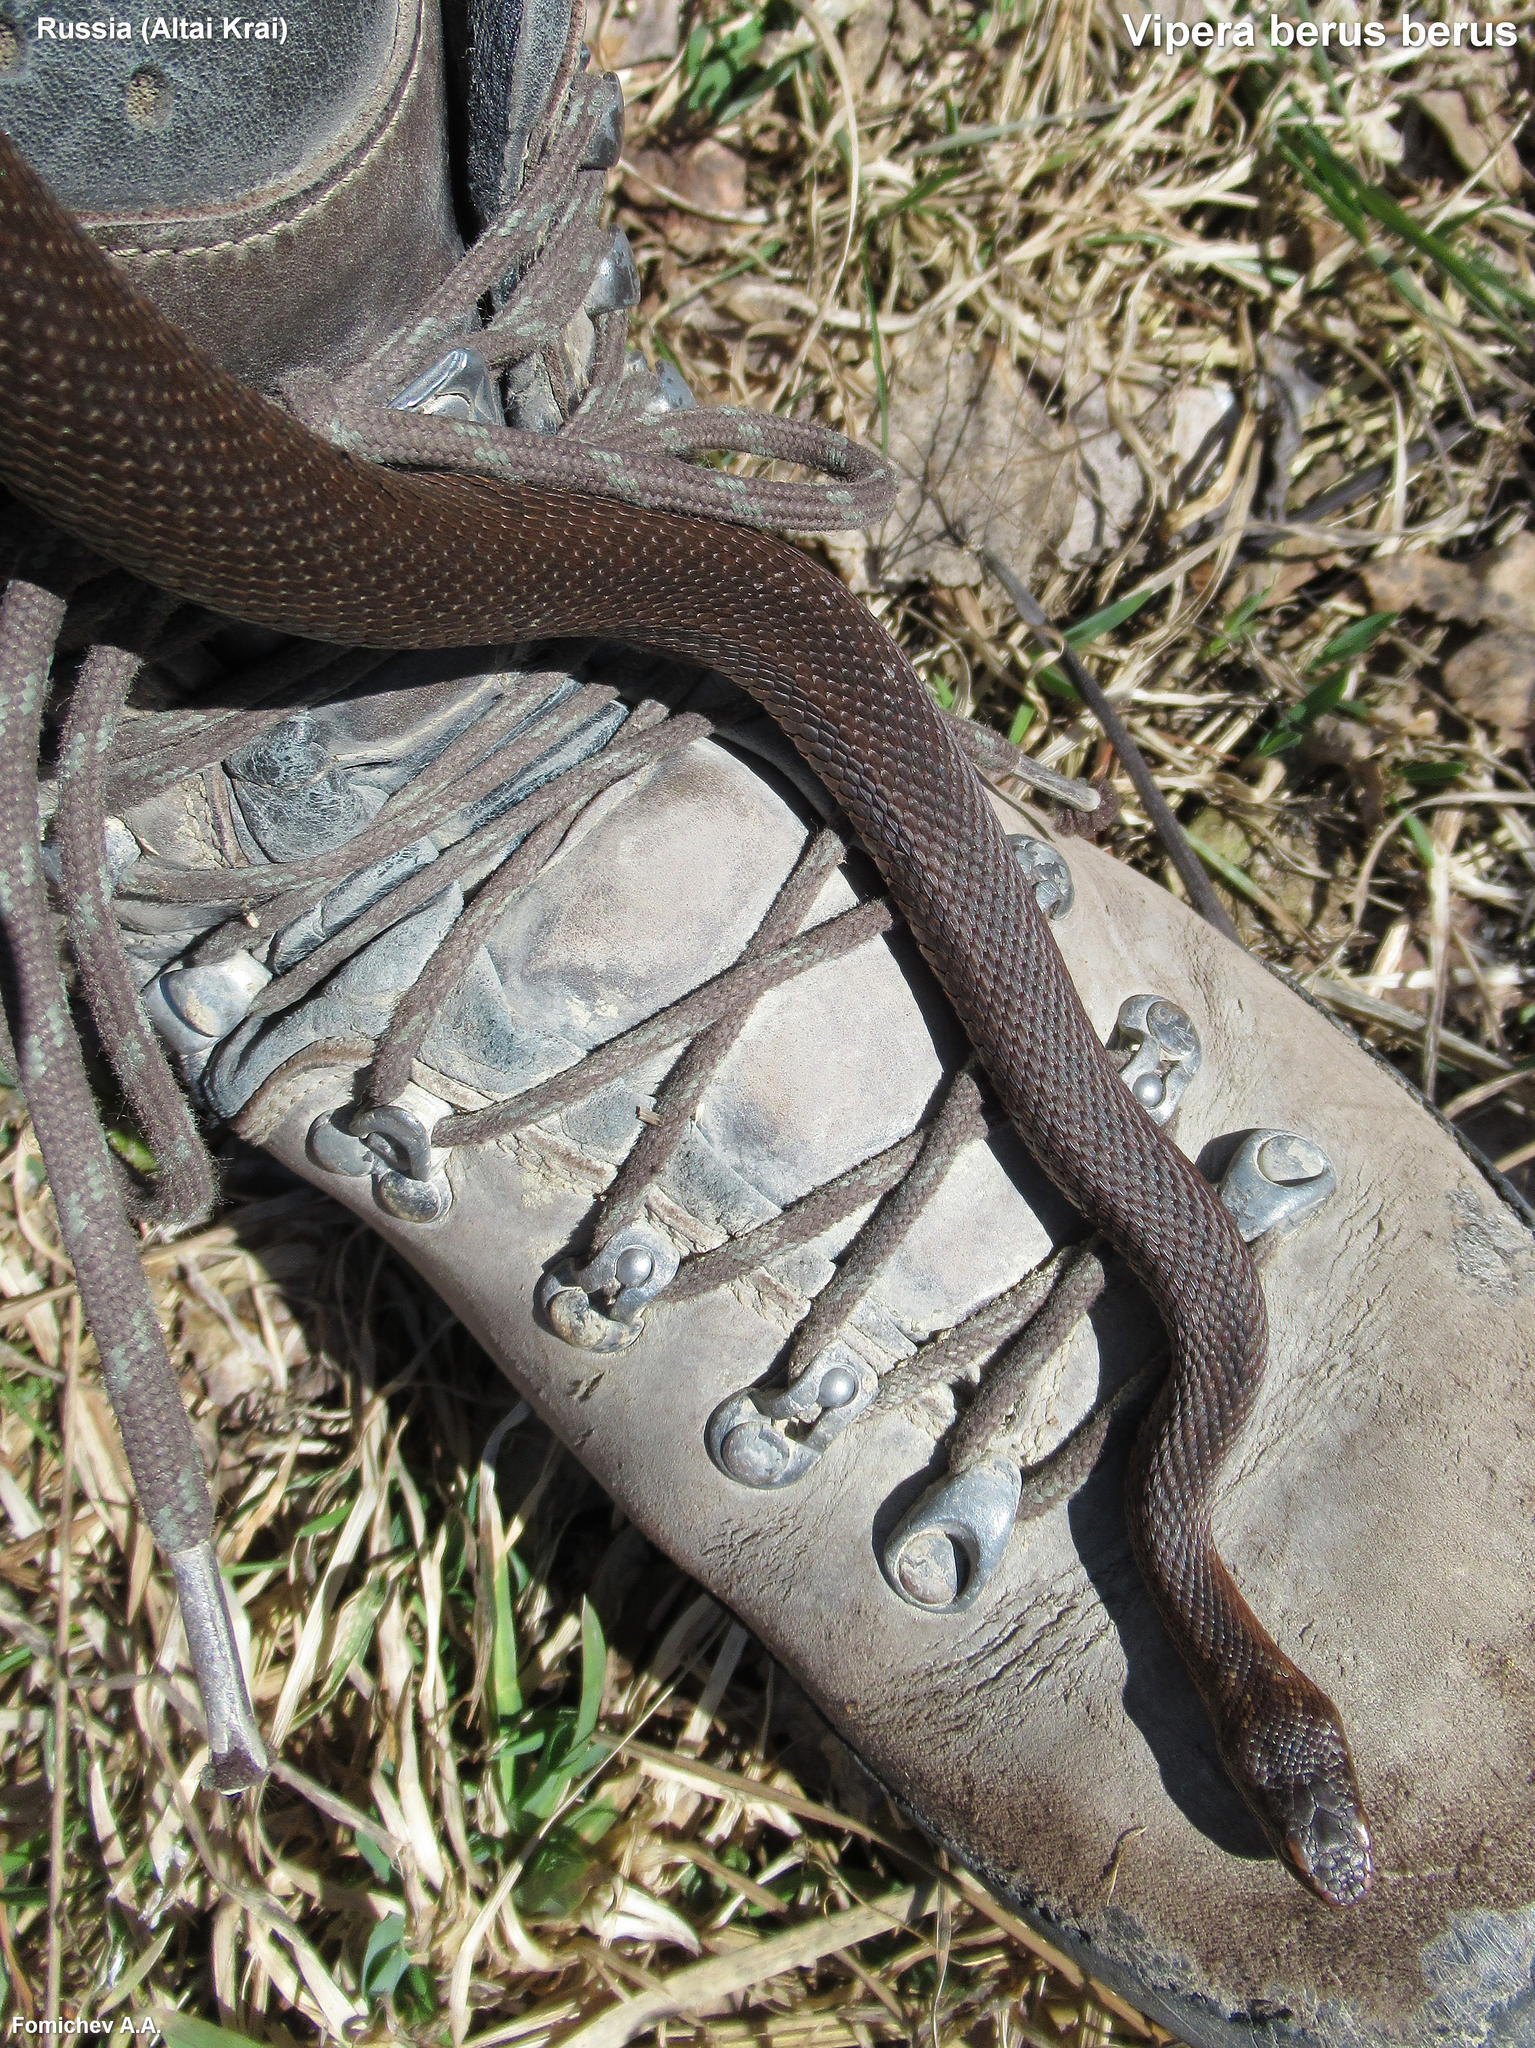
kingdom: Animalia
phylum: Chordata
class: Squamata
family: Viperidae
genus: Vipera
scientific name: Vipera berus
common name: Adder
